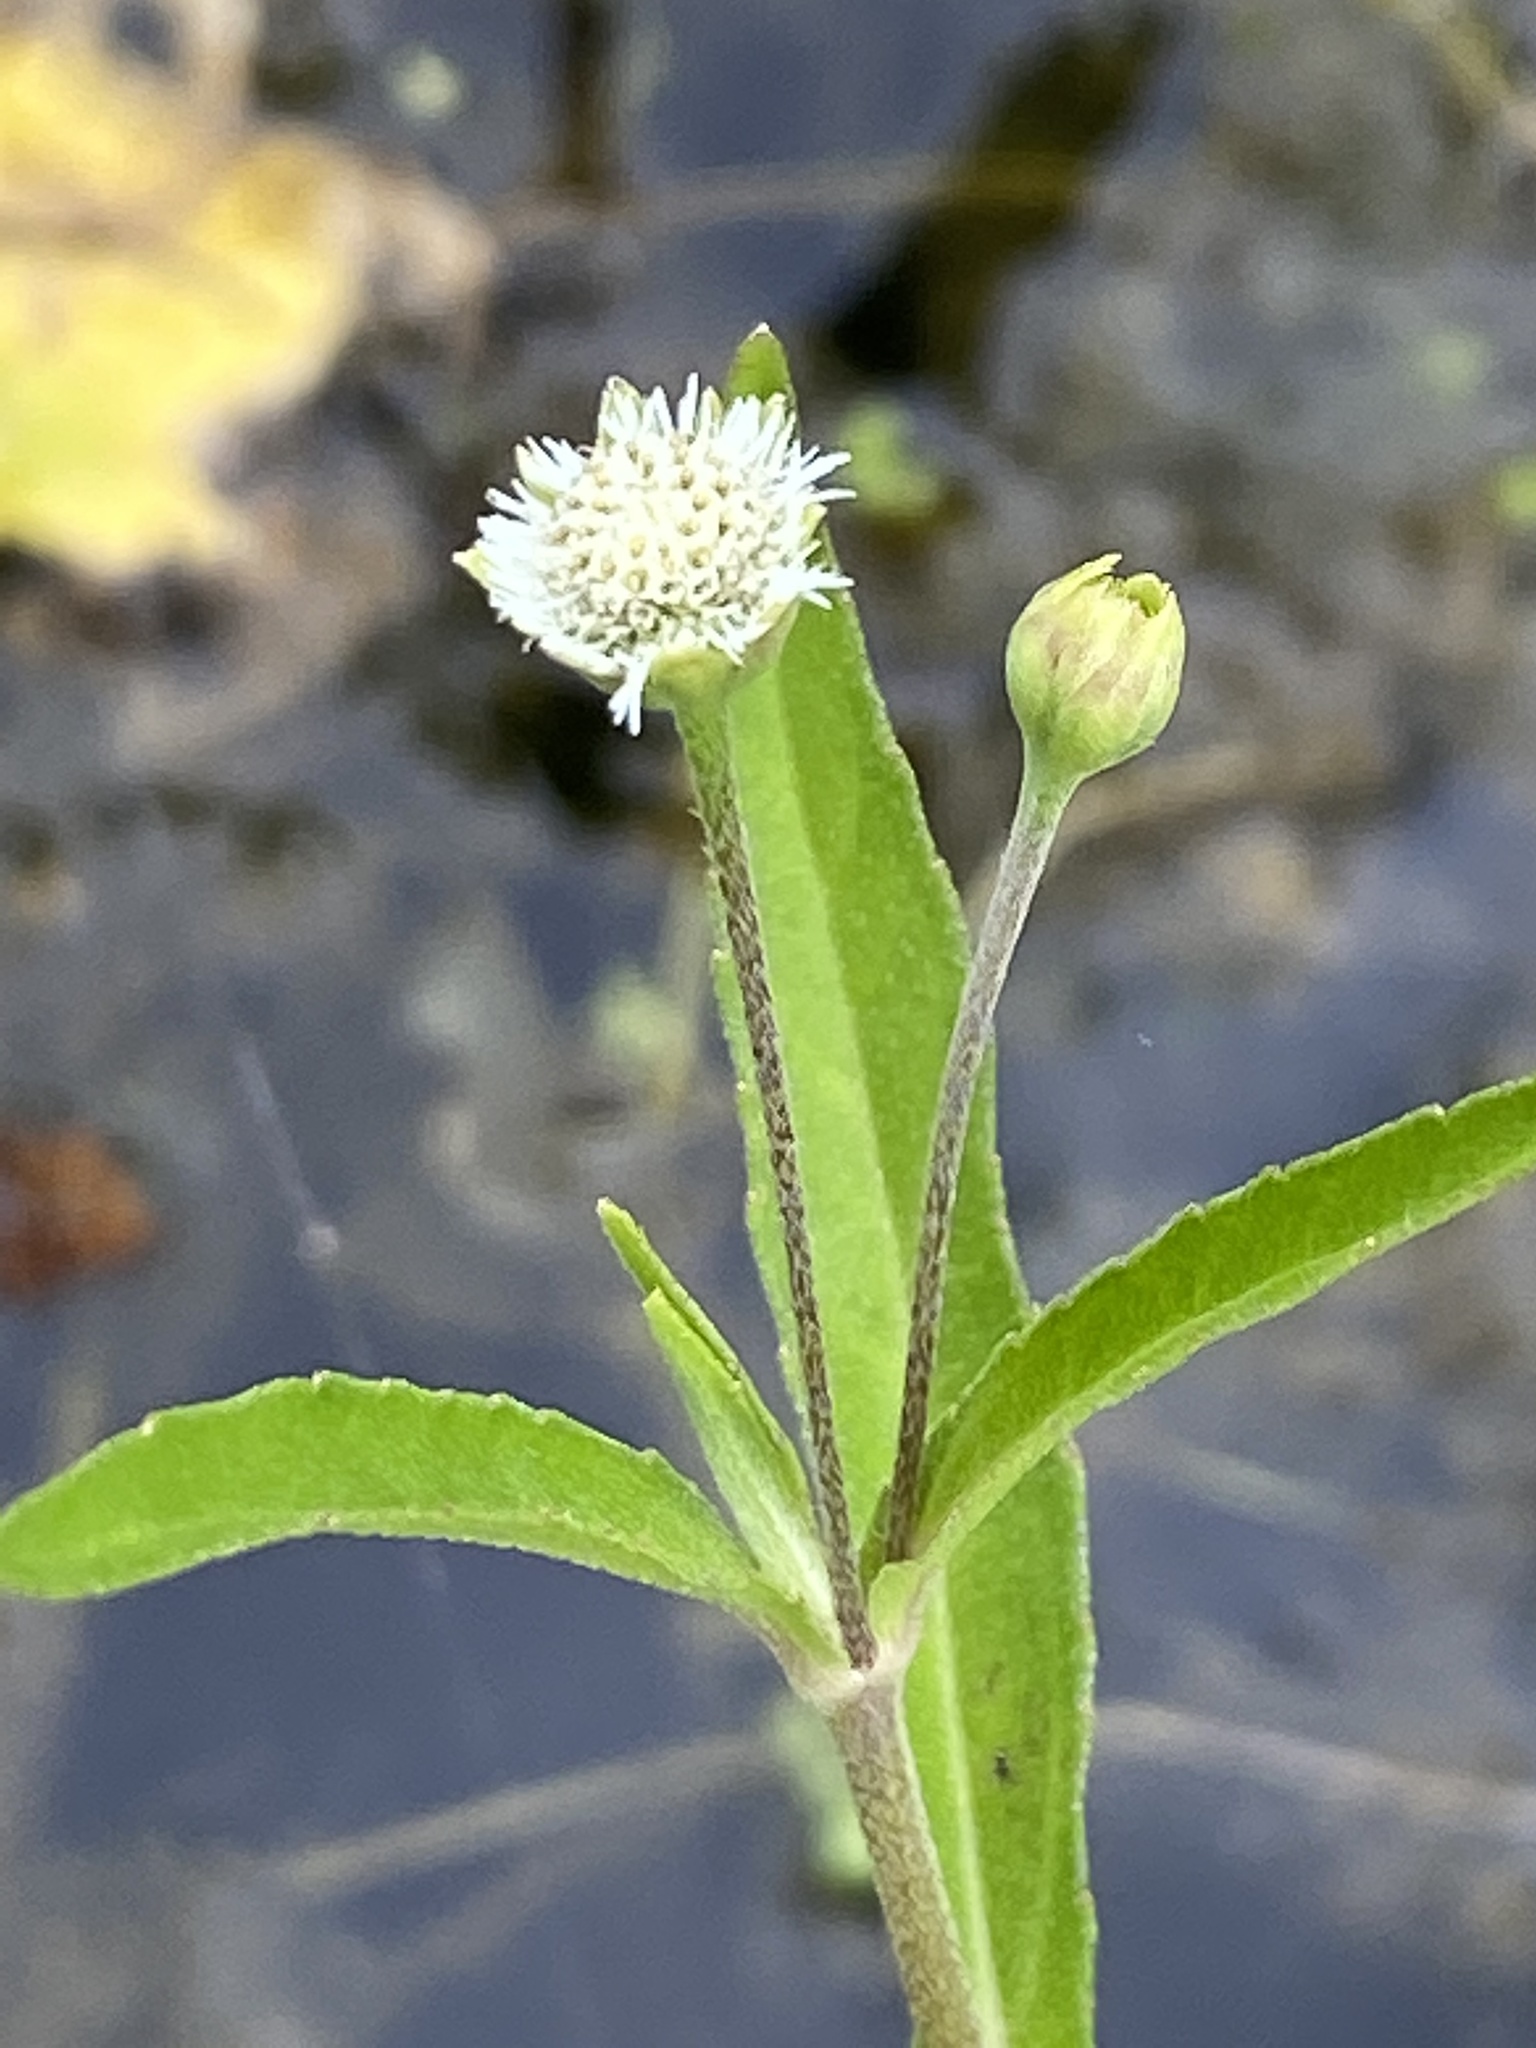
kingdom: Plantae
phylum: Tracheophyta
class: Magnoliopsida
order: Asterales
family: Asteraceae
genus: Eclipta
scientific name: Eclipta prostrata
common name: False daisy
